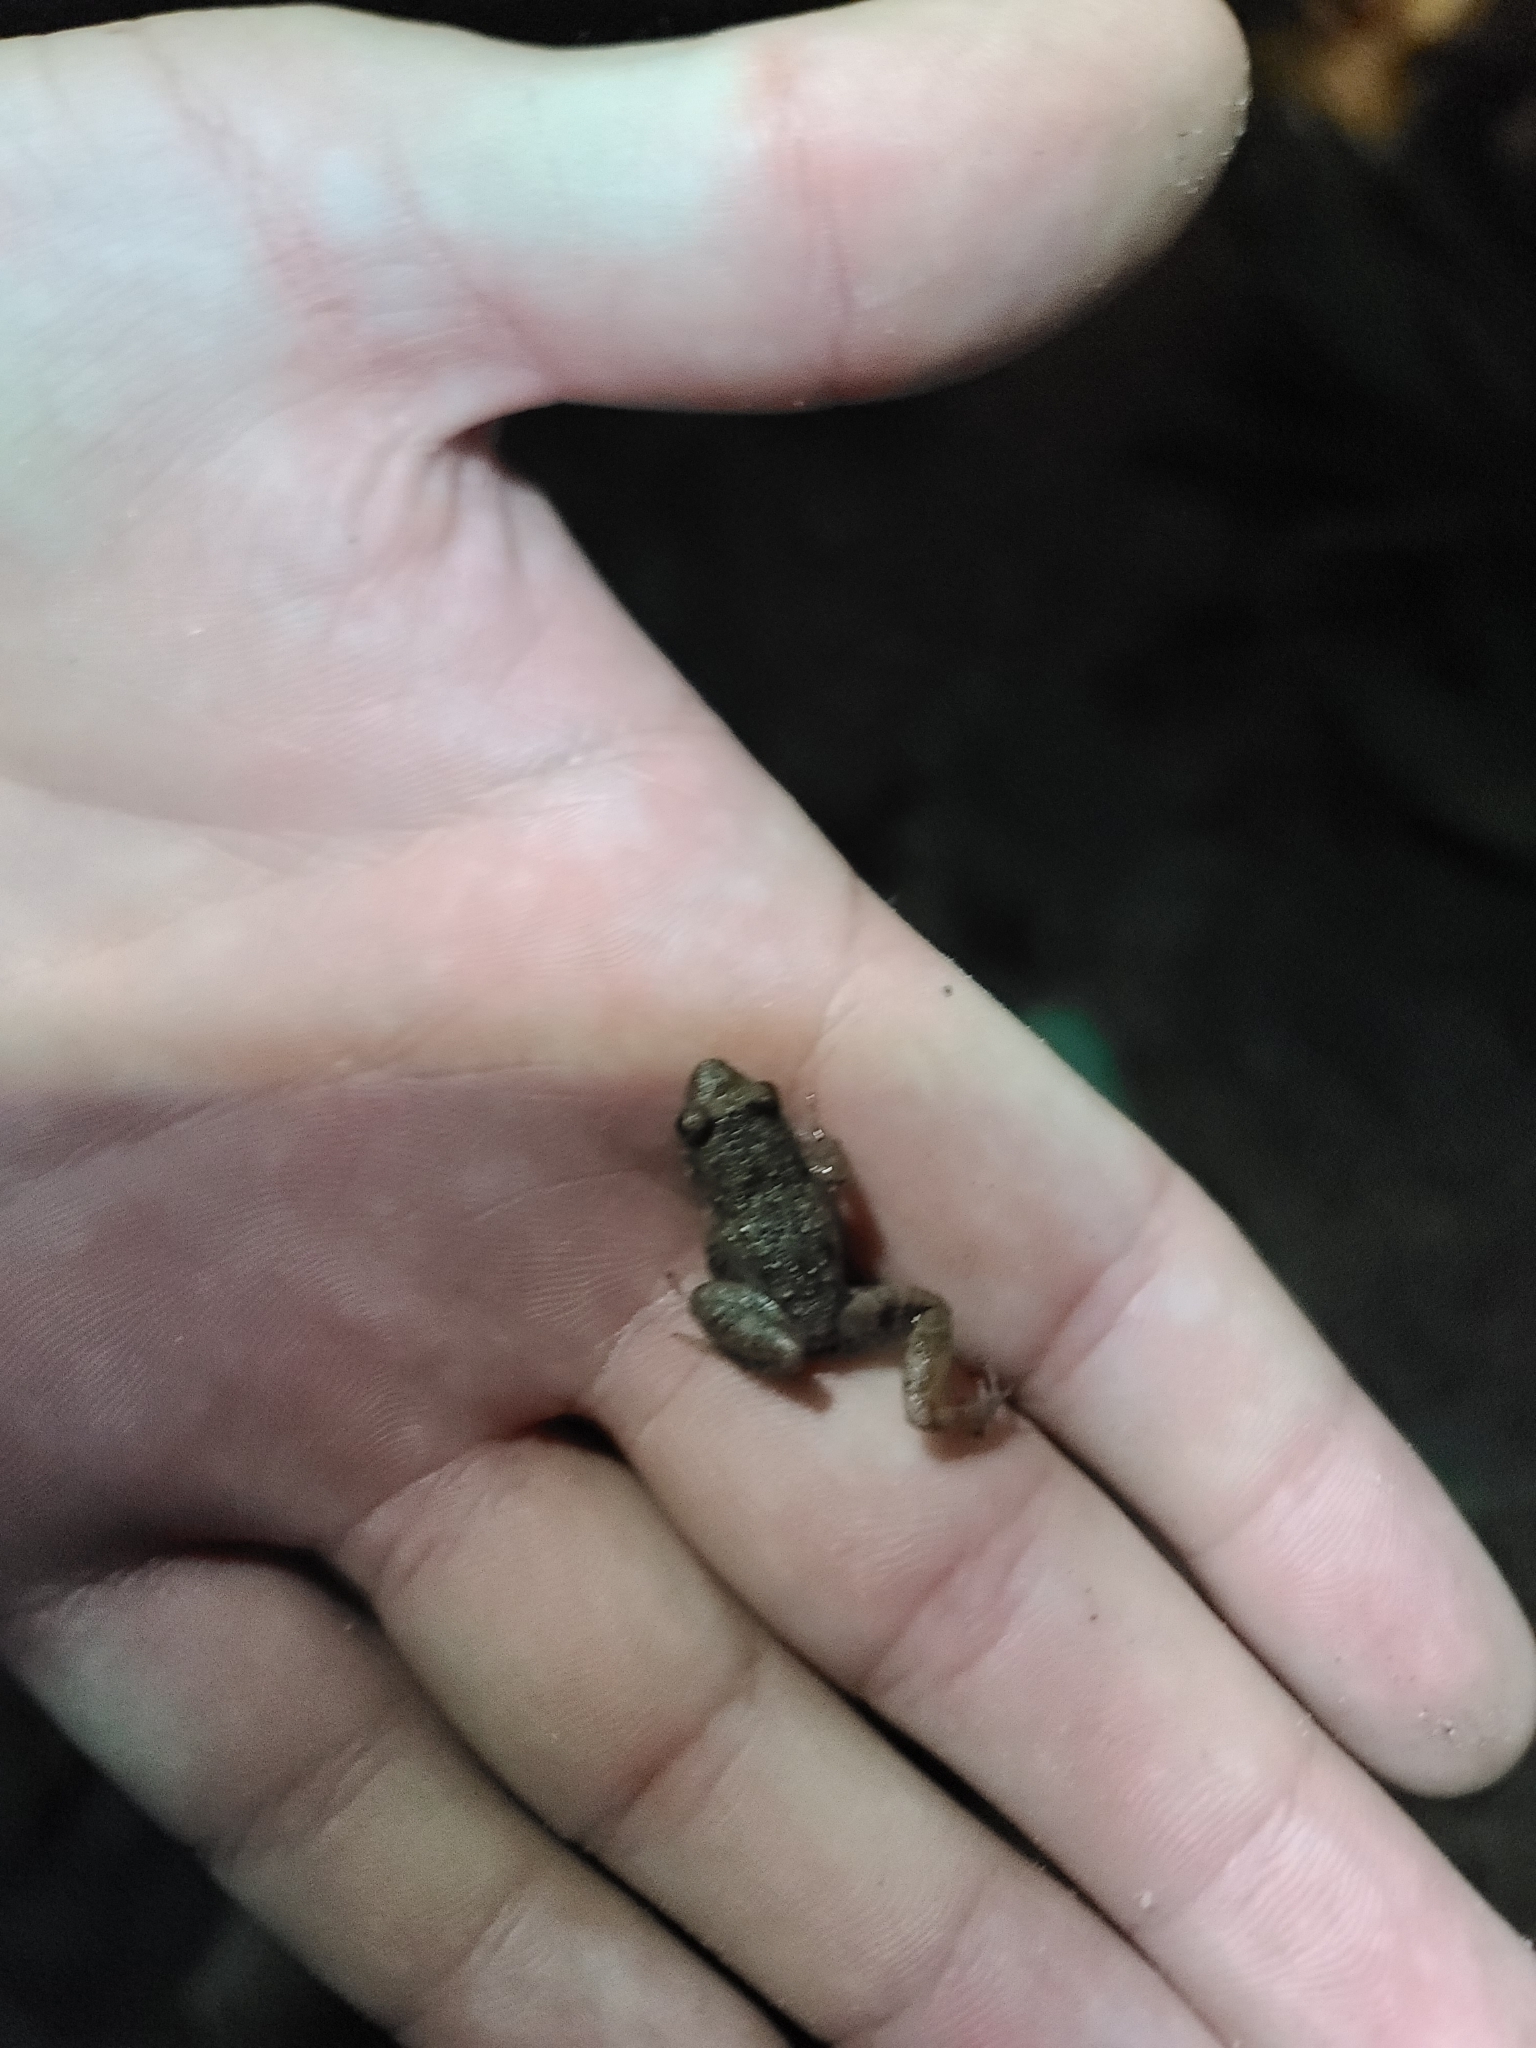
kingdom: Animalia
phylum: Chordata
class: Amphibia
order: Anura
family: Eleutherodactylidae
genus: Eleutherodactylus
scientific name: Eleutherodactylus planirostris
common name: Greenhouse frog
